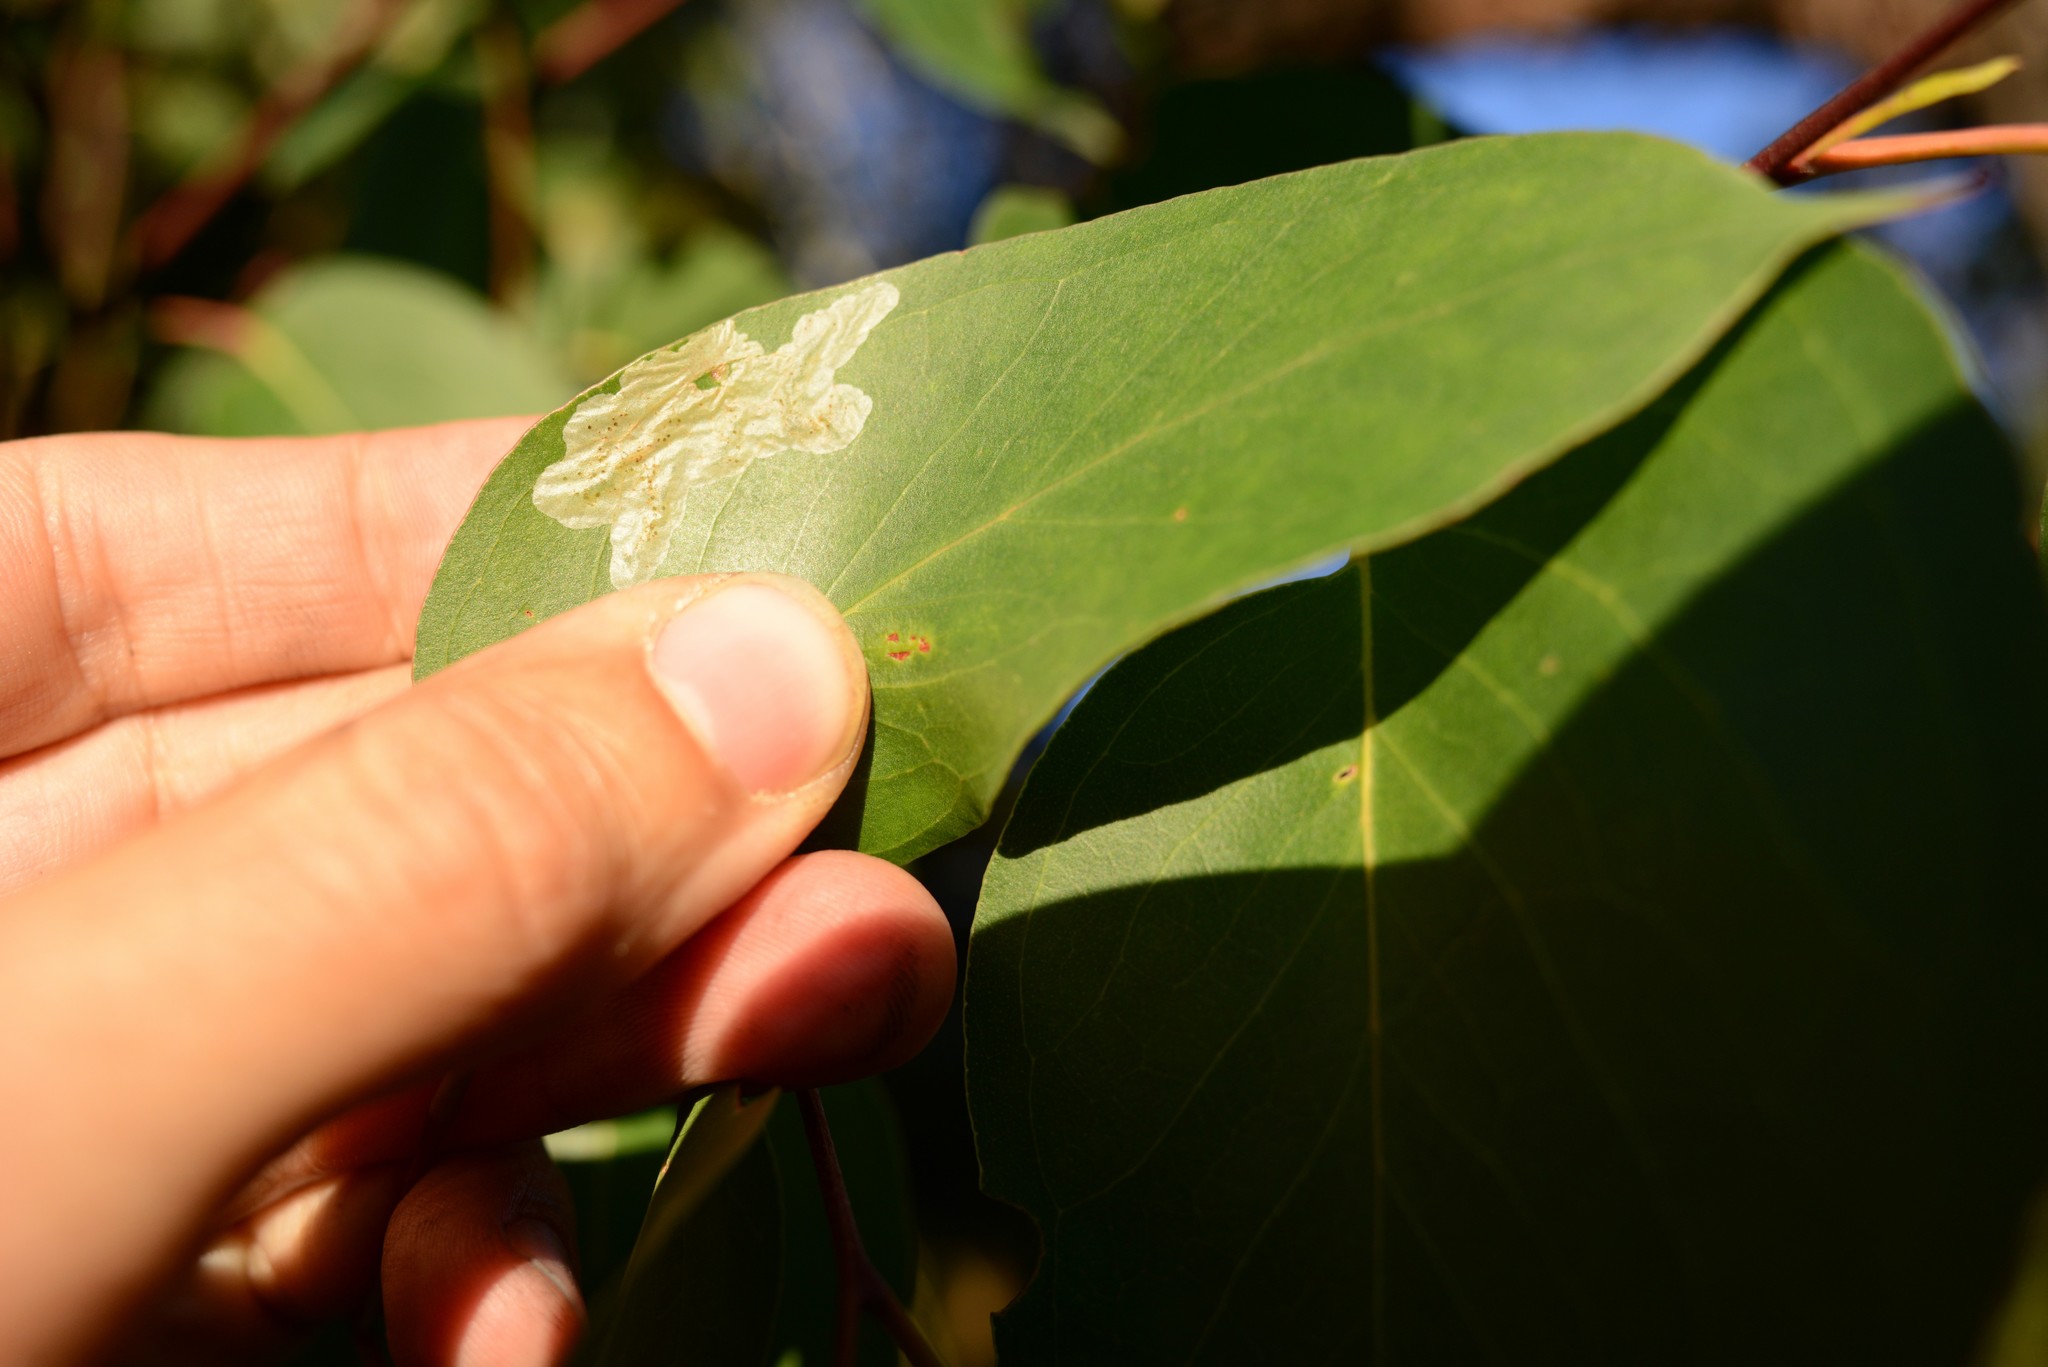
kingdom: Animalia
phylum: Arthropoda
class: Insecta
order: Hymenoptera
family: Pergidae
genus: Phylacteophaga
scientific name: Phylacteophaga froggatti
